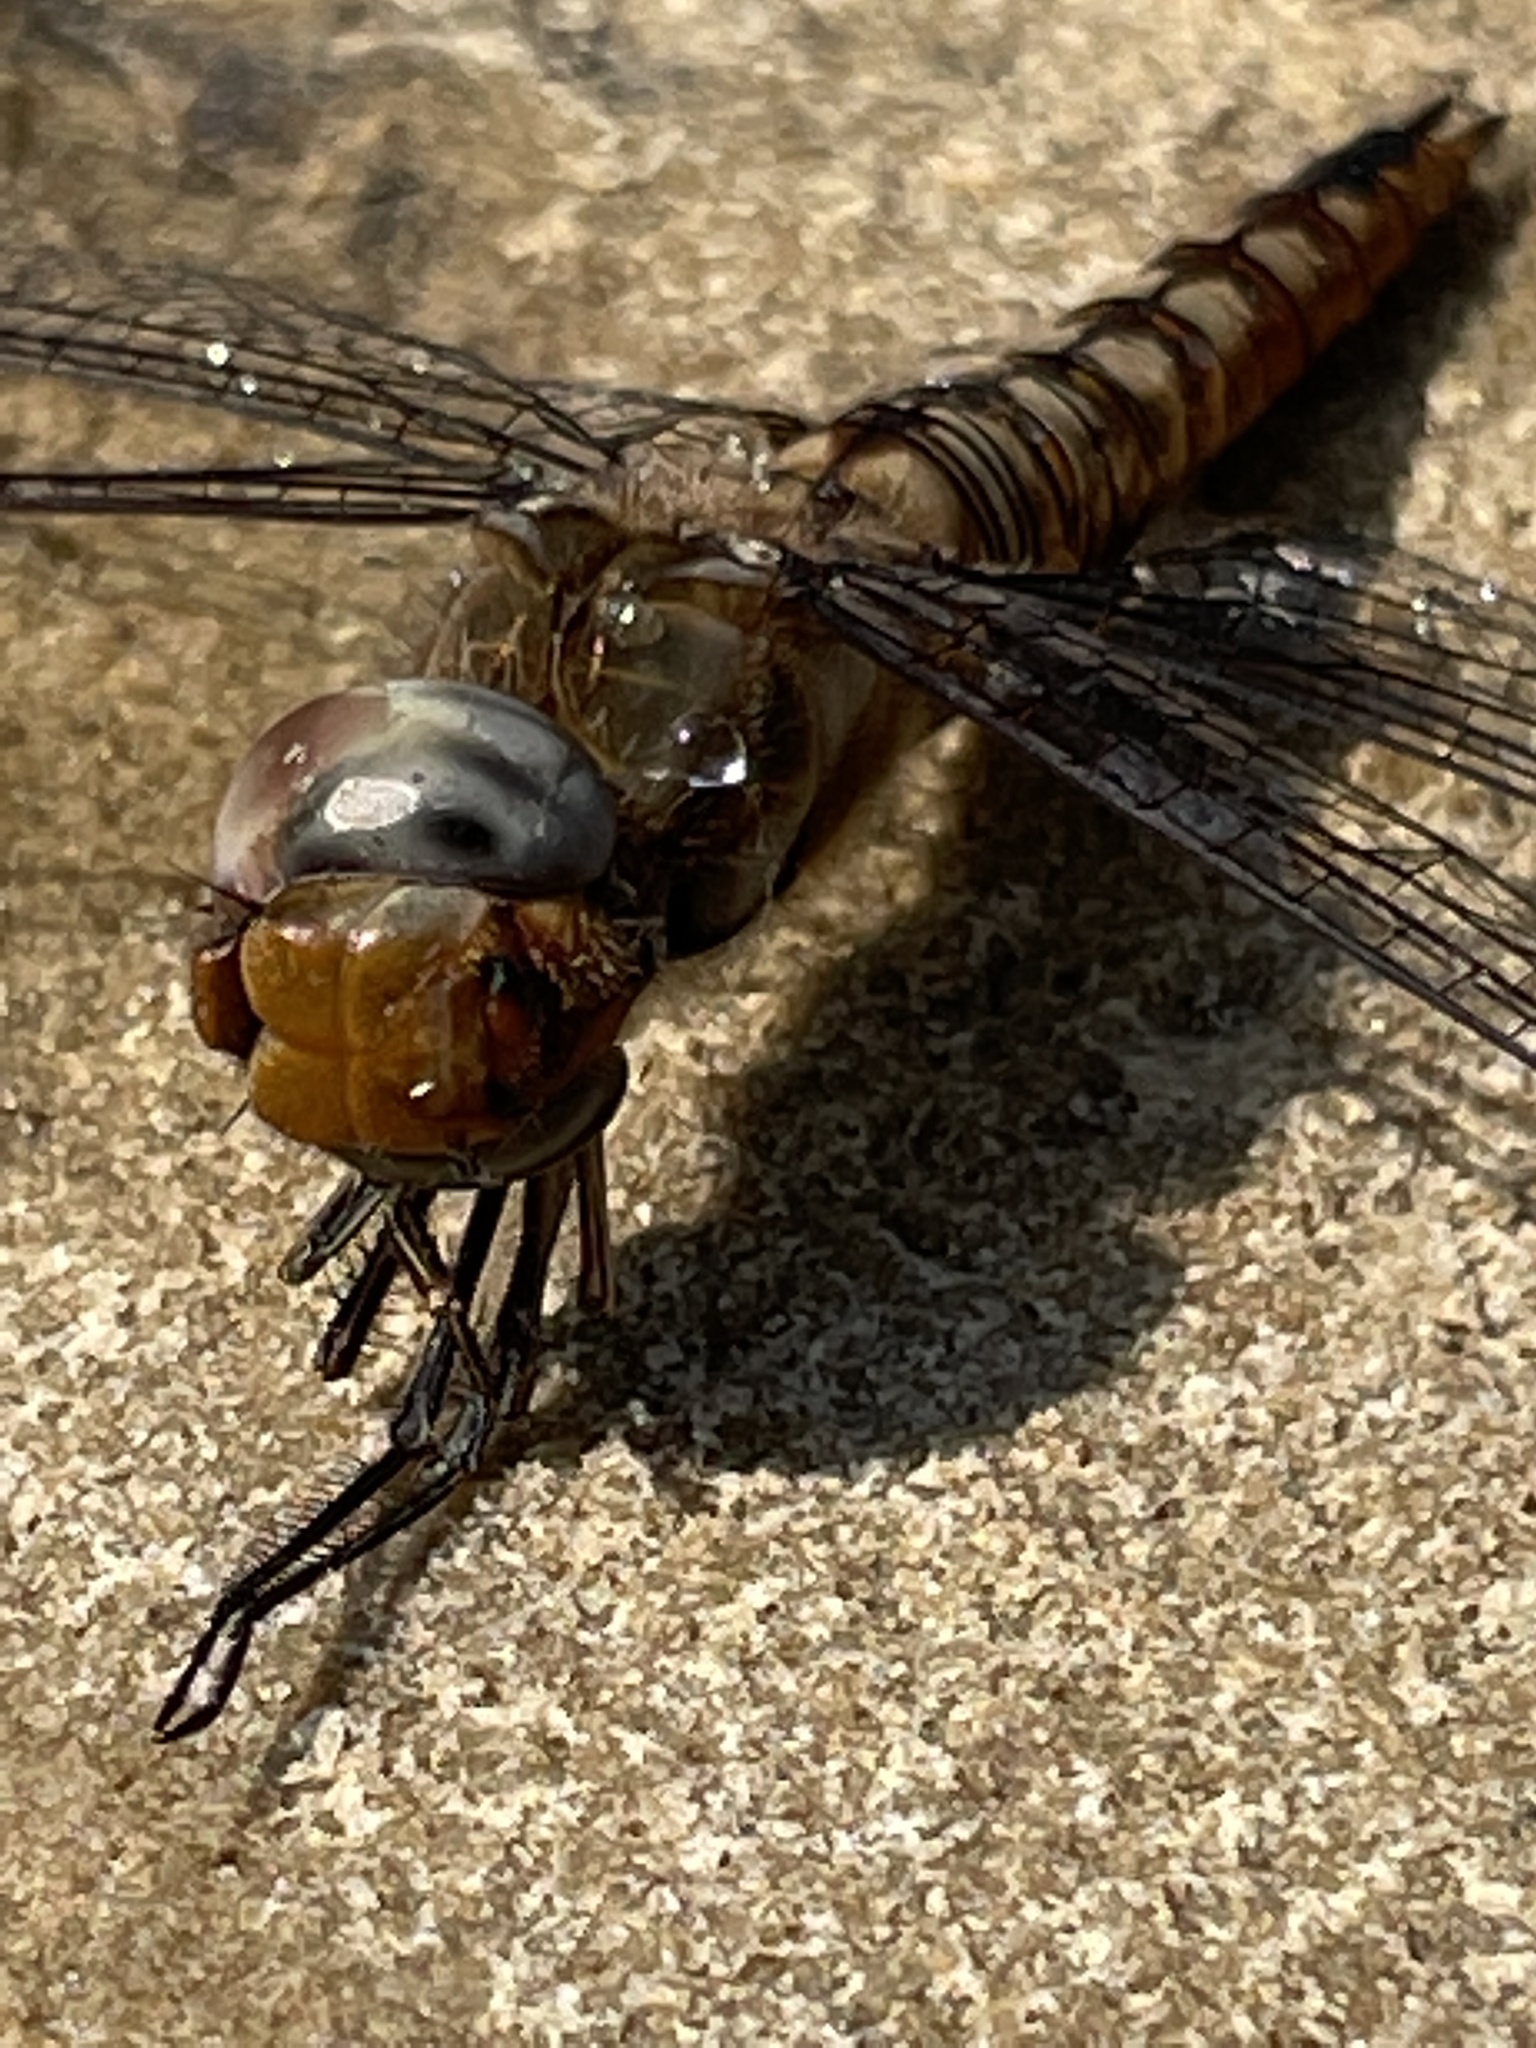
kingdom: Animalia
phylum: Arthropoda
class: Insecta
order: Odonata
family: Libellulidae
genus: Pantala
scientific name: Pantala hymenaea
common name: Spot-winged glider
